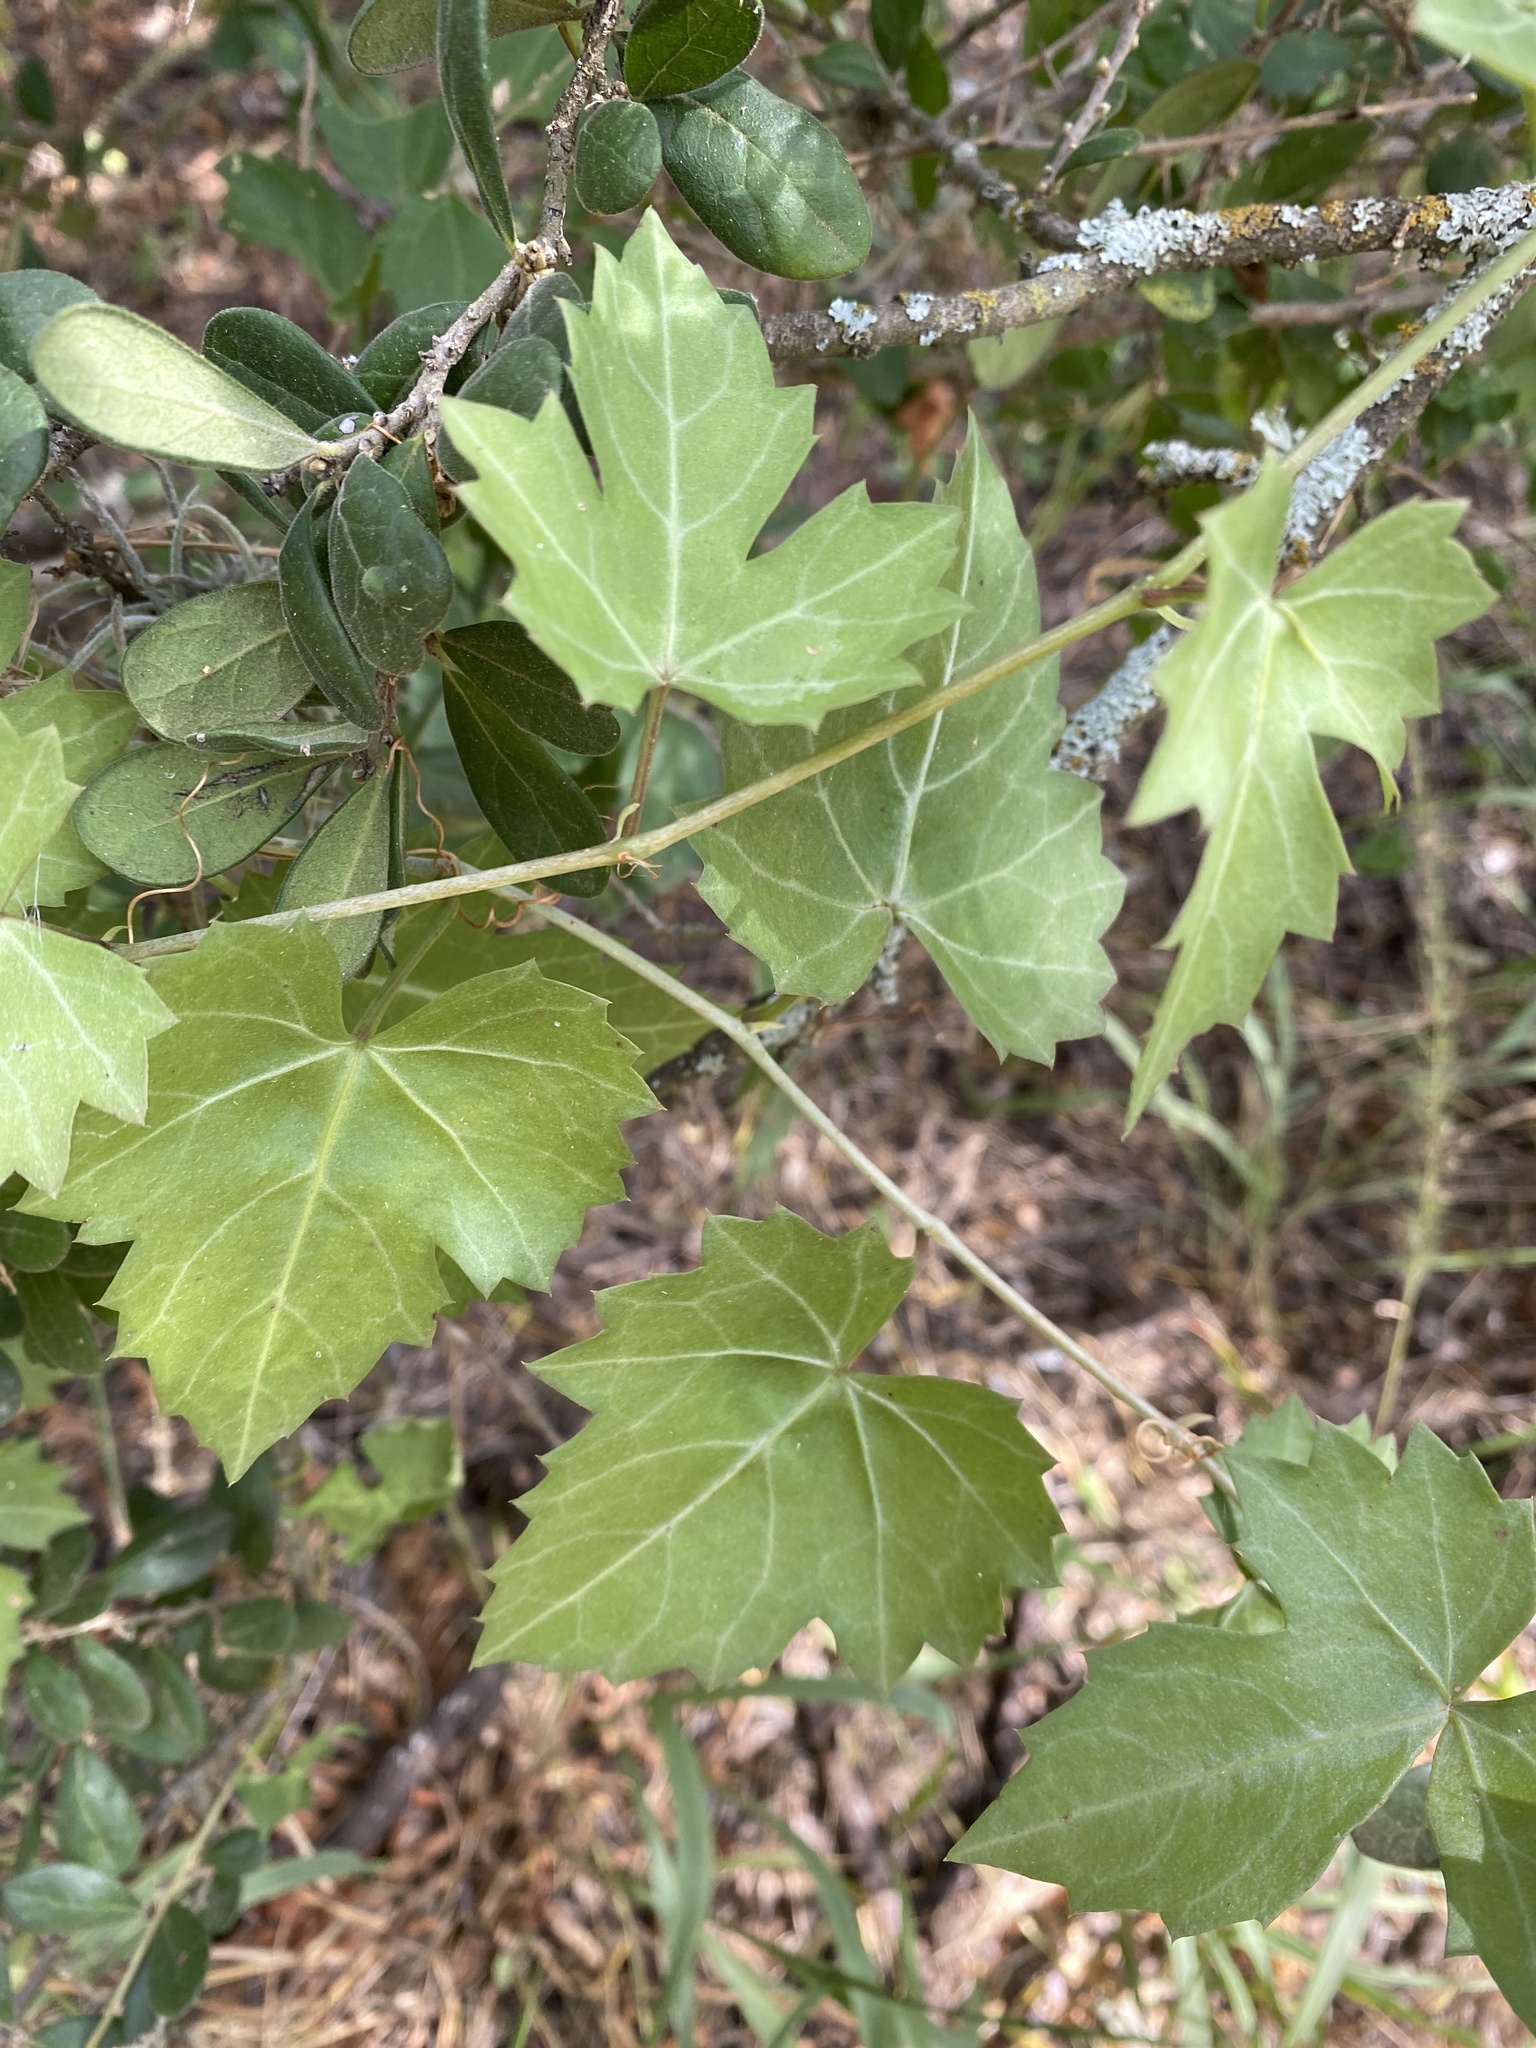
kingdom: Plantae
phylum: Tracheophyta
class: Magnoliopsida
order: Vitales
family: Vitaceae
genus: Cissus
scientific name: Cissus trifoliata
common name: Vine-sorrel
